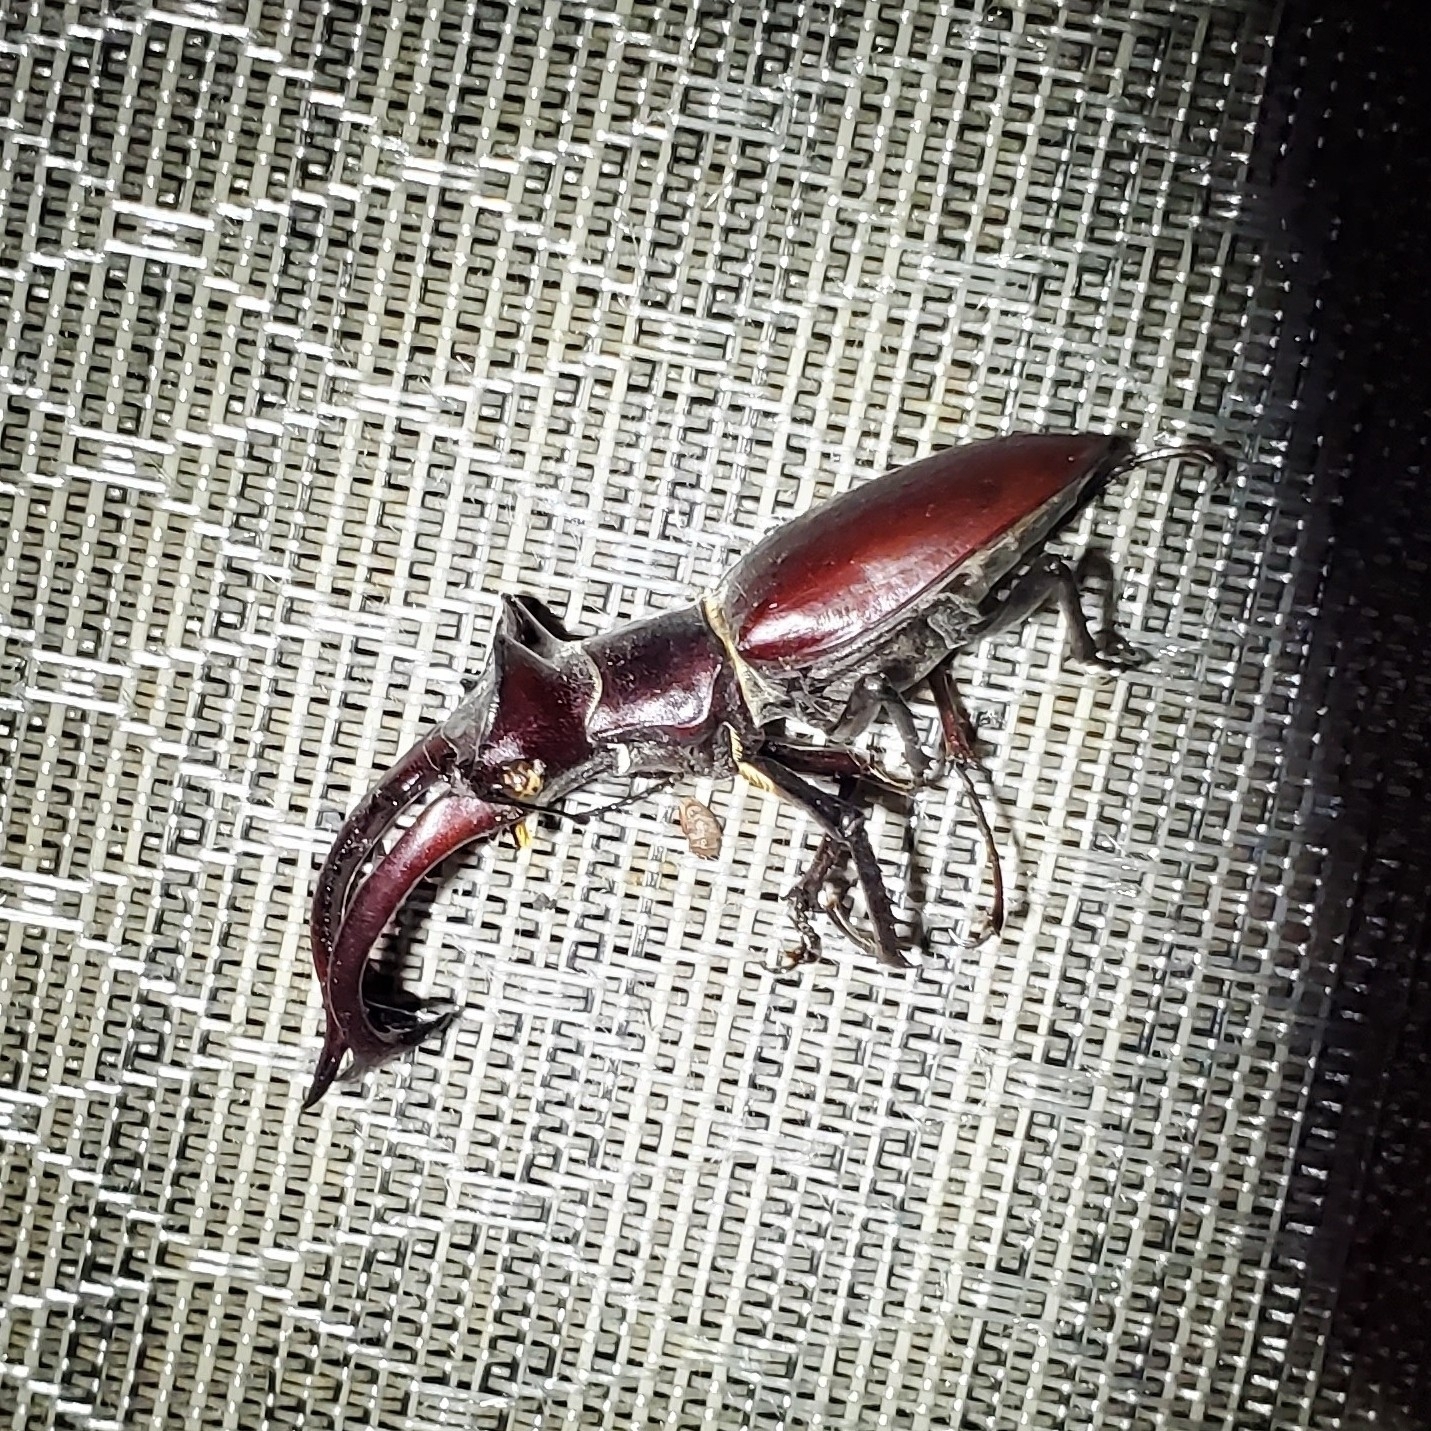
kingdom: Animalia
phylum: Arthropoda
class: Insecta
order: Coleoptera
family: Lucanidae
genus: Lucanus
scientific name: Lucanus elaphus
